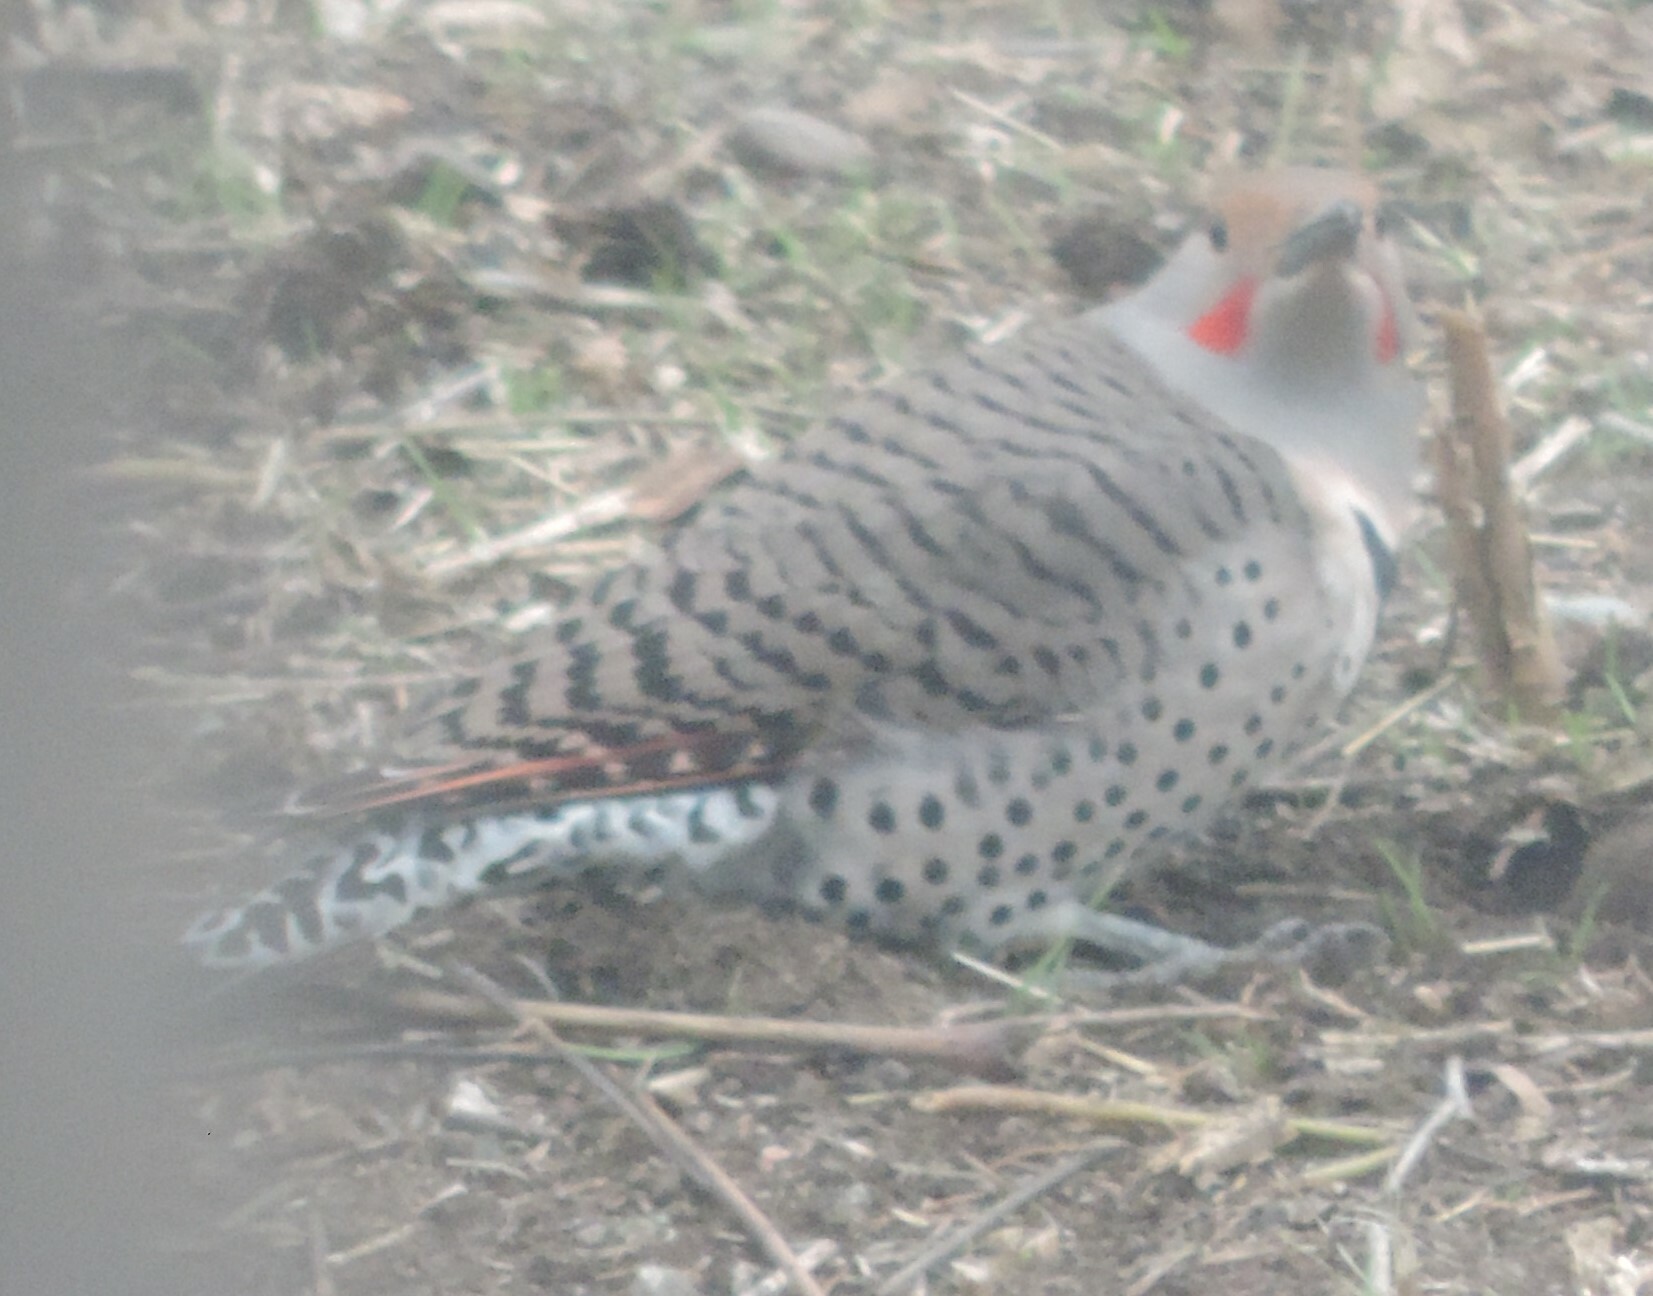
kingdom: Animalia
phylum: Chordata
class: Aves
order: Piciformes
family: Picidae
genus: Colaptes
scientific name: Colaptes auratus
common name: Northern flicker
